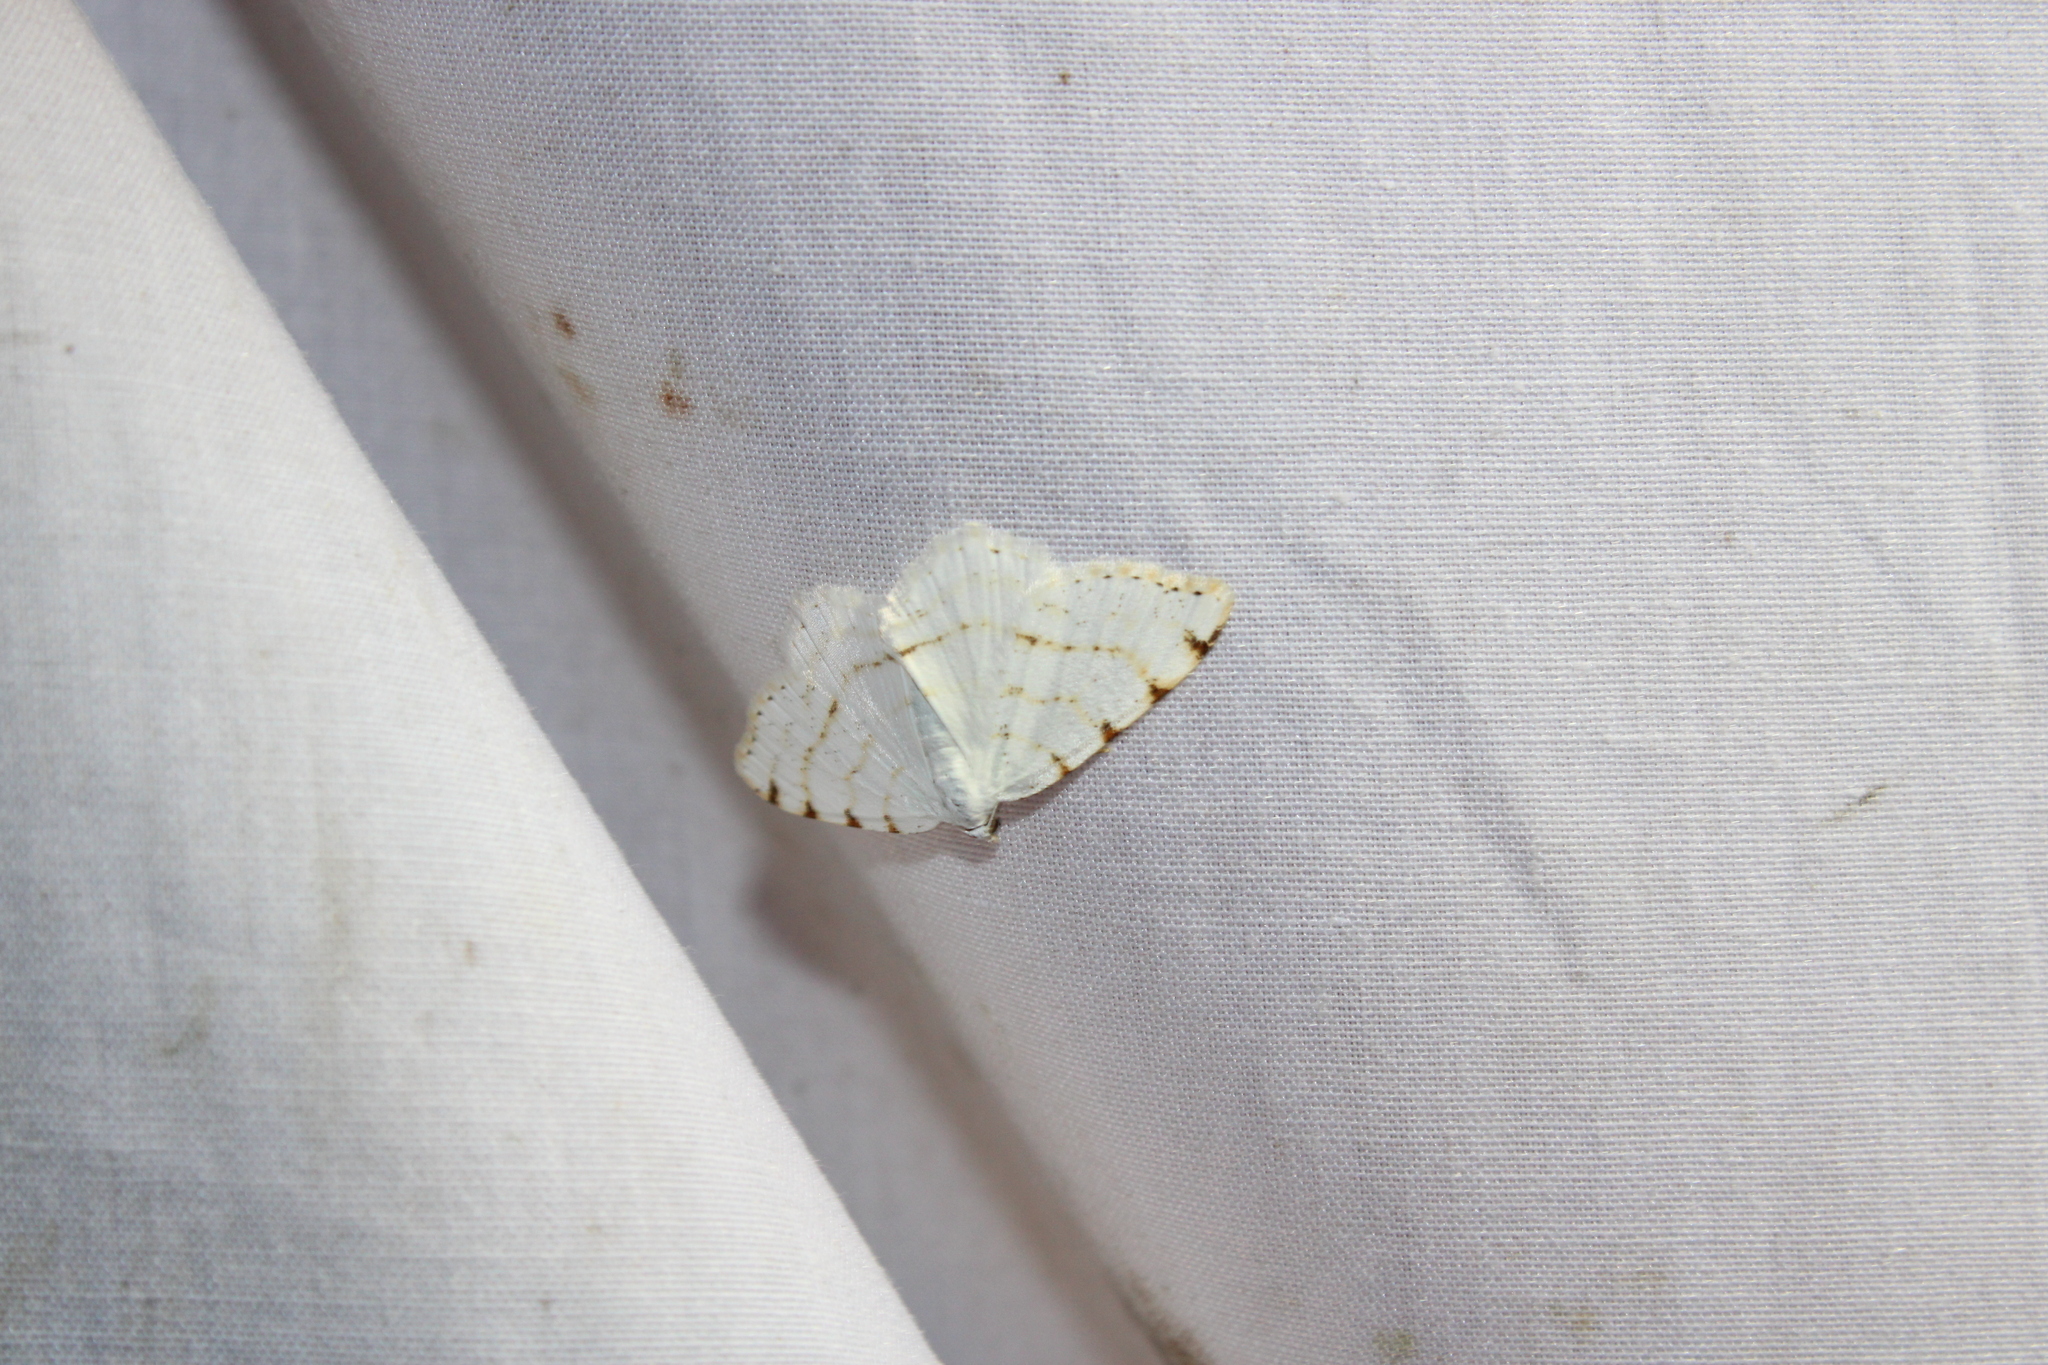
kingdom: Animalia
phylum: Arthropoda
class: Insecta
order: Lepidoptera
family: Geometridae
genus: Macaria
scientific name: Macaria pustularia
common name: Lesser maple spanworm moth
